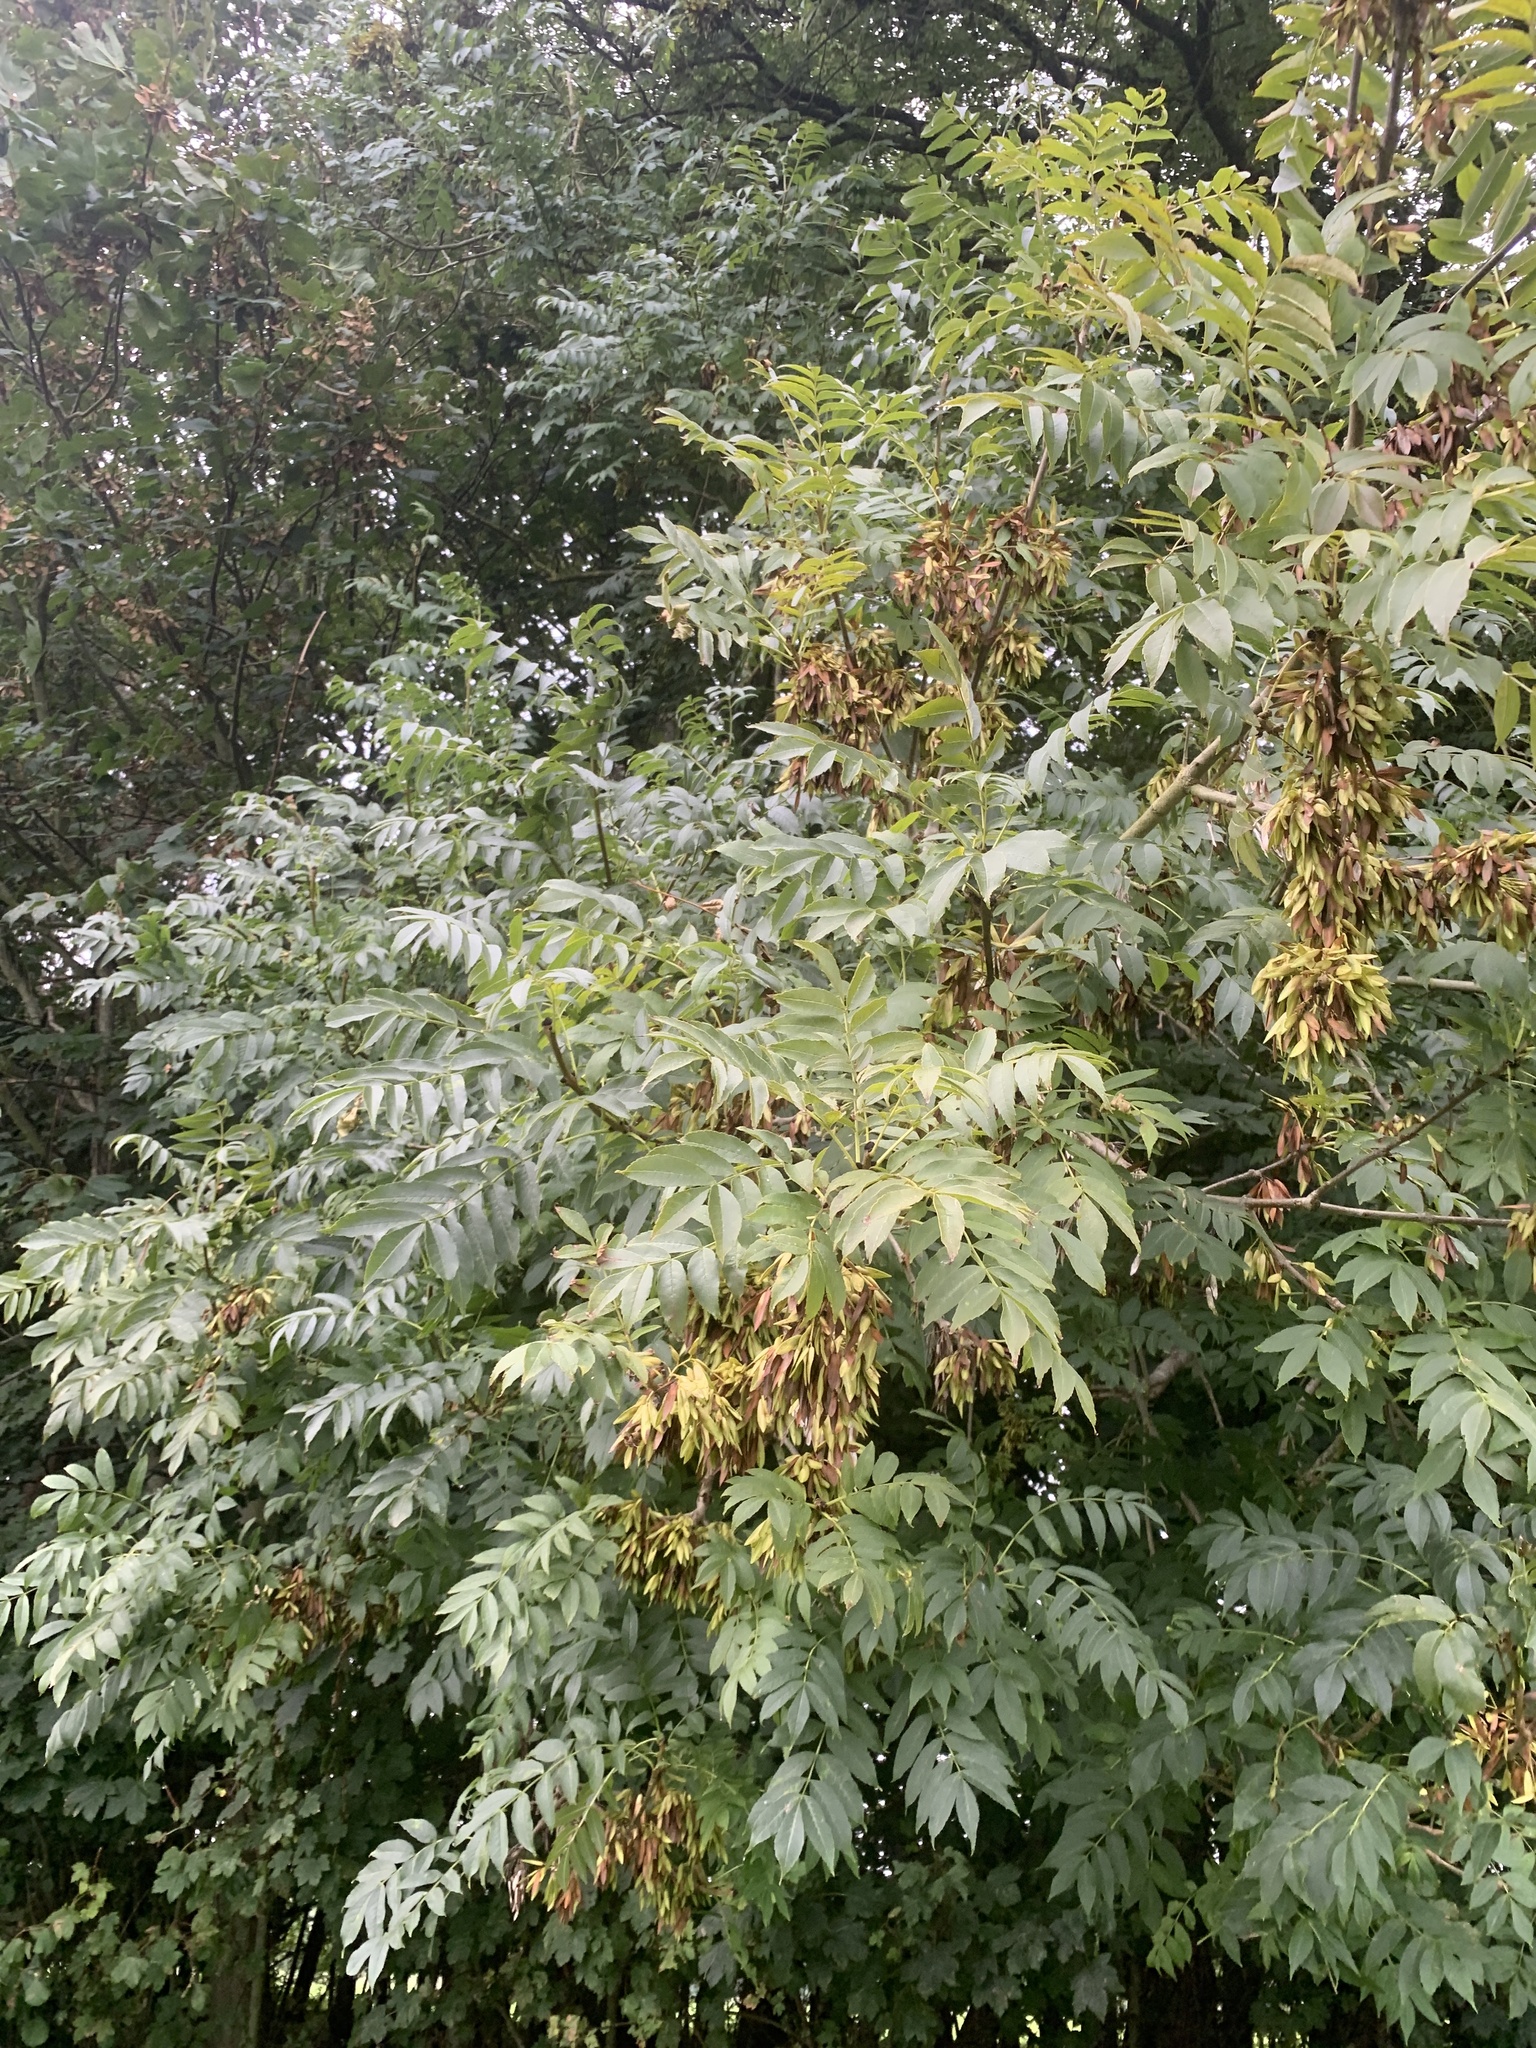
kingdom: Plantae
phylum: Tracheophyta
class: Magnoliopsida
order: Lamiales
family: Oleaceae
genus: Fraxinus
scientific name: Fraxinus excelsior
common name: European ash
